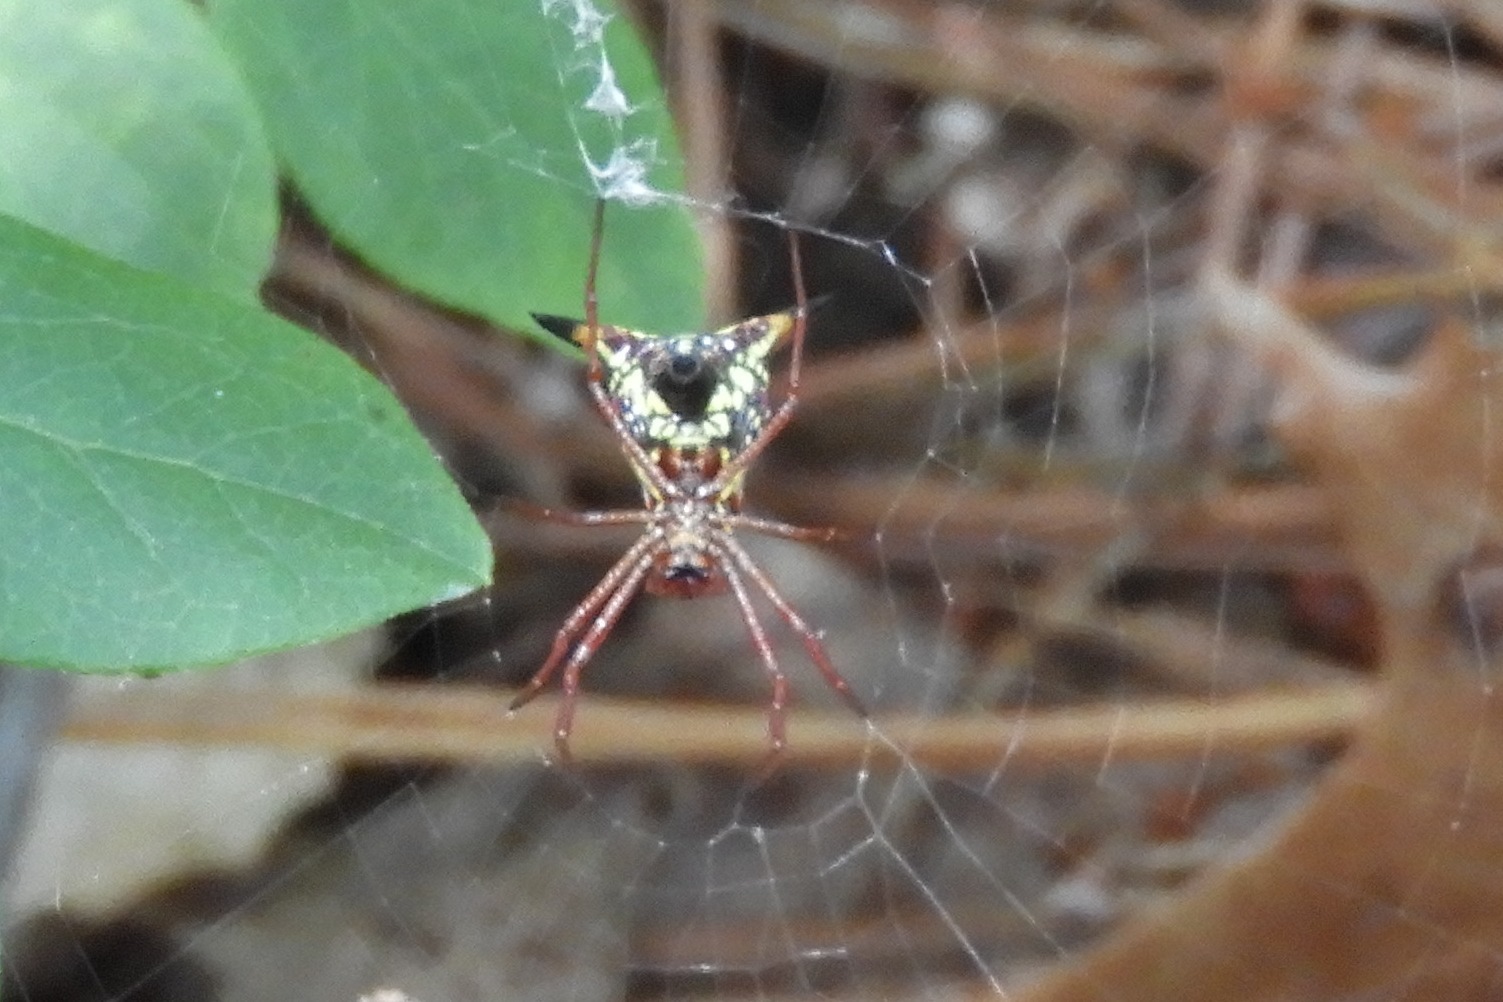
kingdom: Animalia
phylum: Arthropoda
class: Arachnida
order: Araneae
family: Araneidae
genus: Micrathena
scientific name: Micrathena sagittata
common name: Orb weavers
